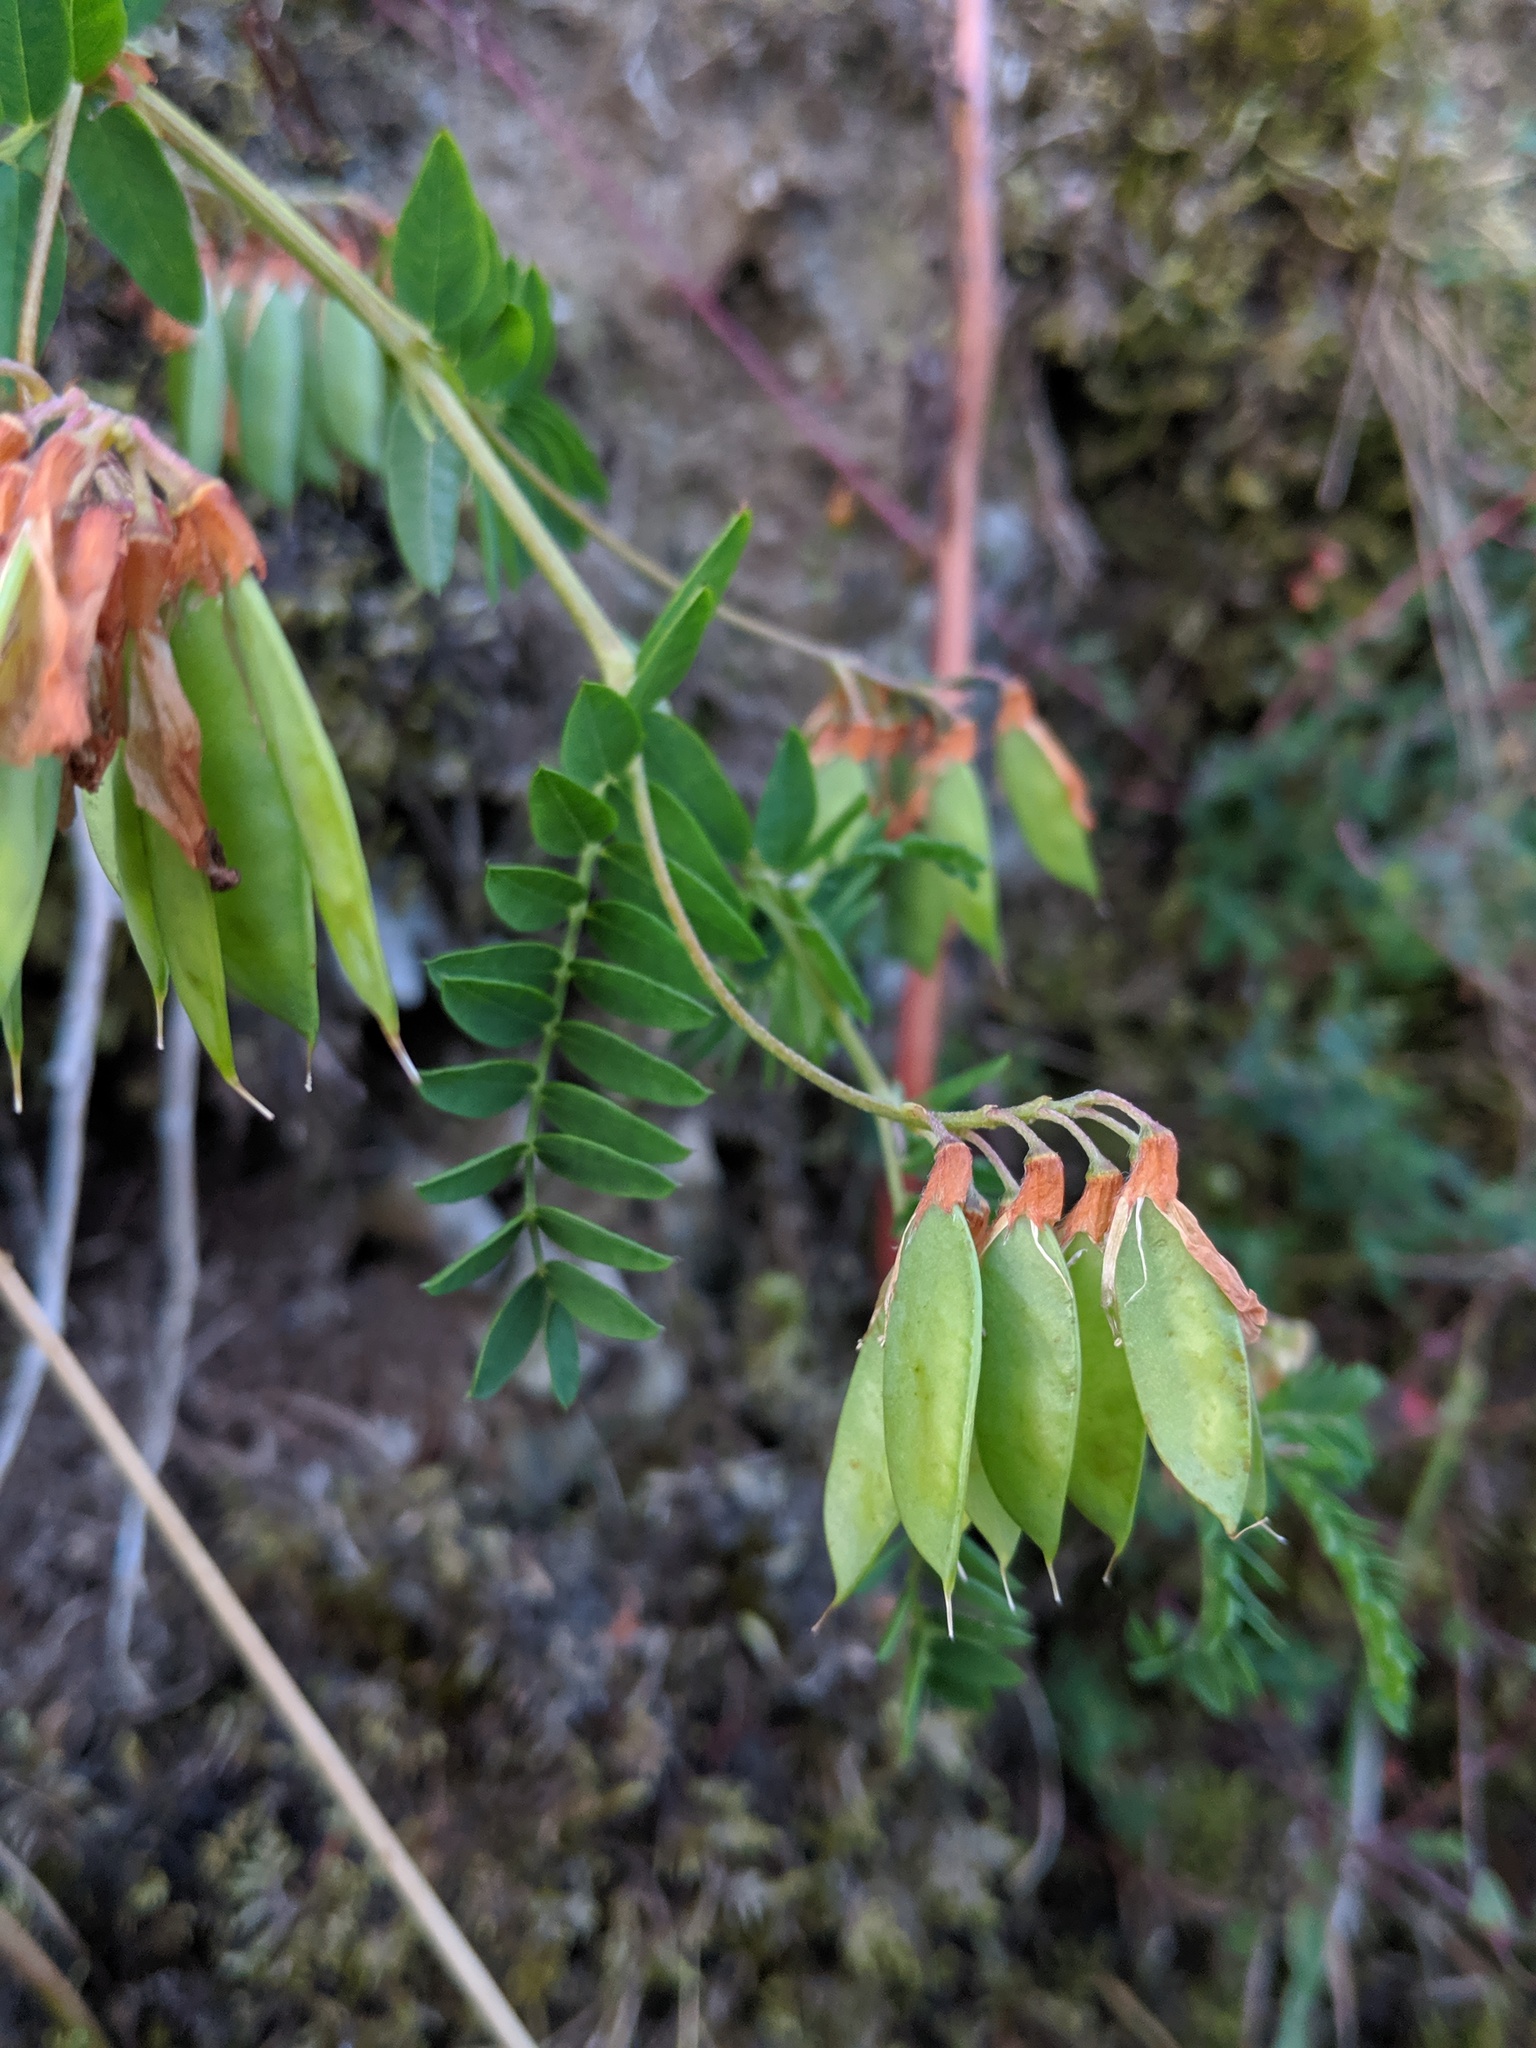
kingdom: Plantae
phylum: Tracheophyta
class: Magnoliopsida
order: Fabales
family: Fabaceae
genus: Vicia
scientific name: Vicia orobus
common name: Wood bitter-vetch
